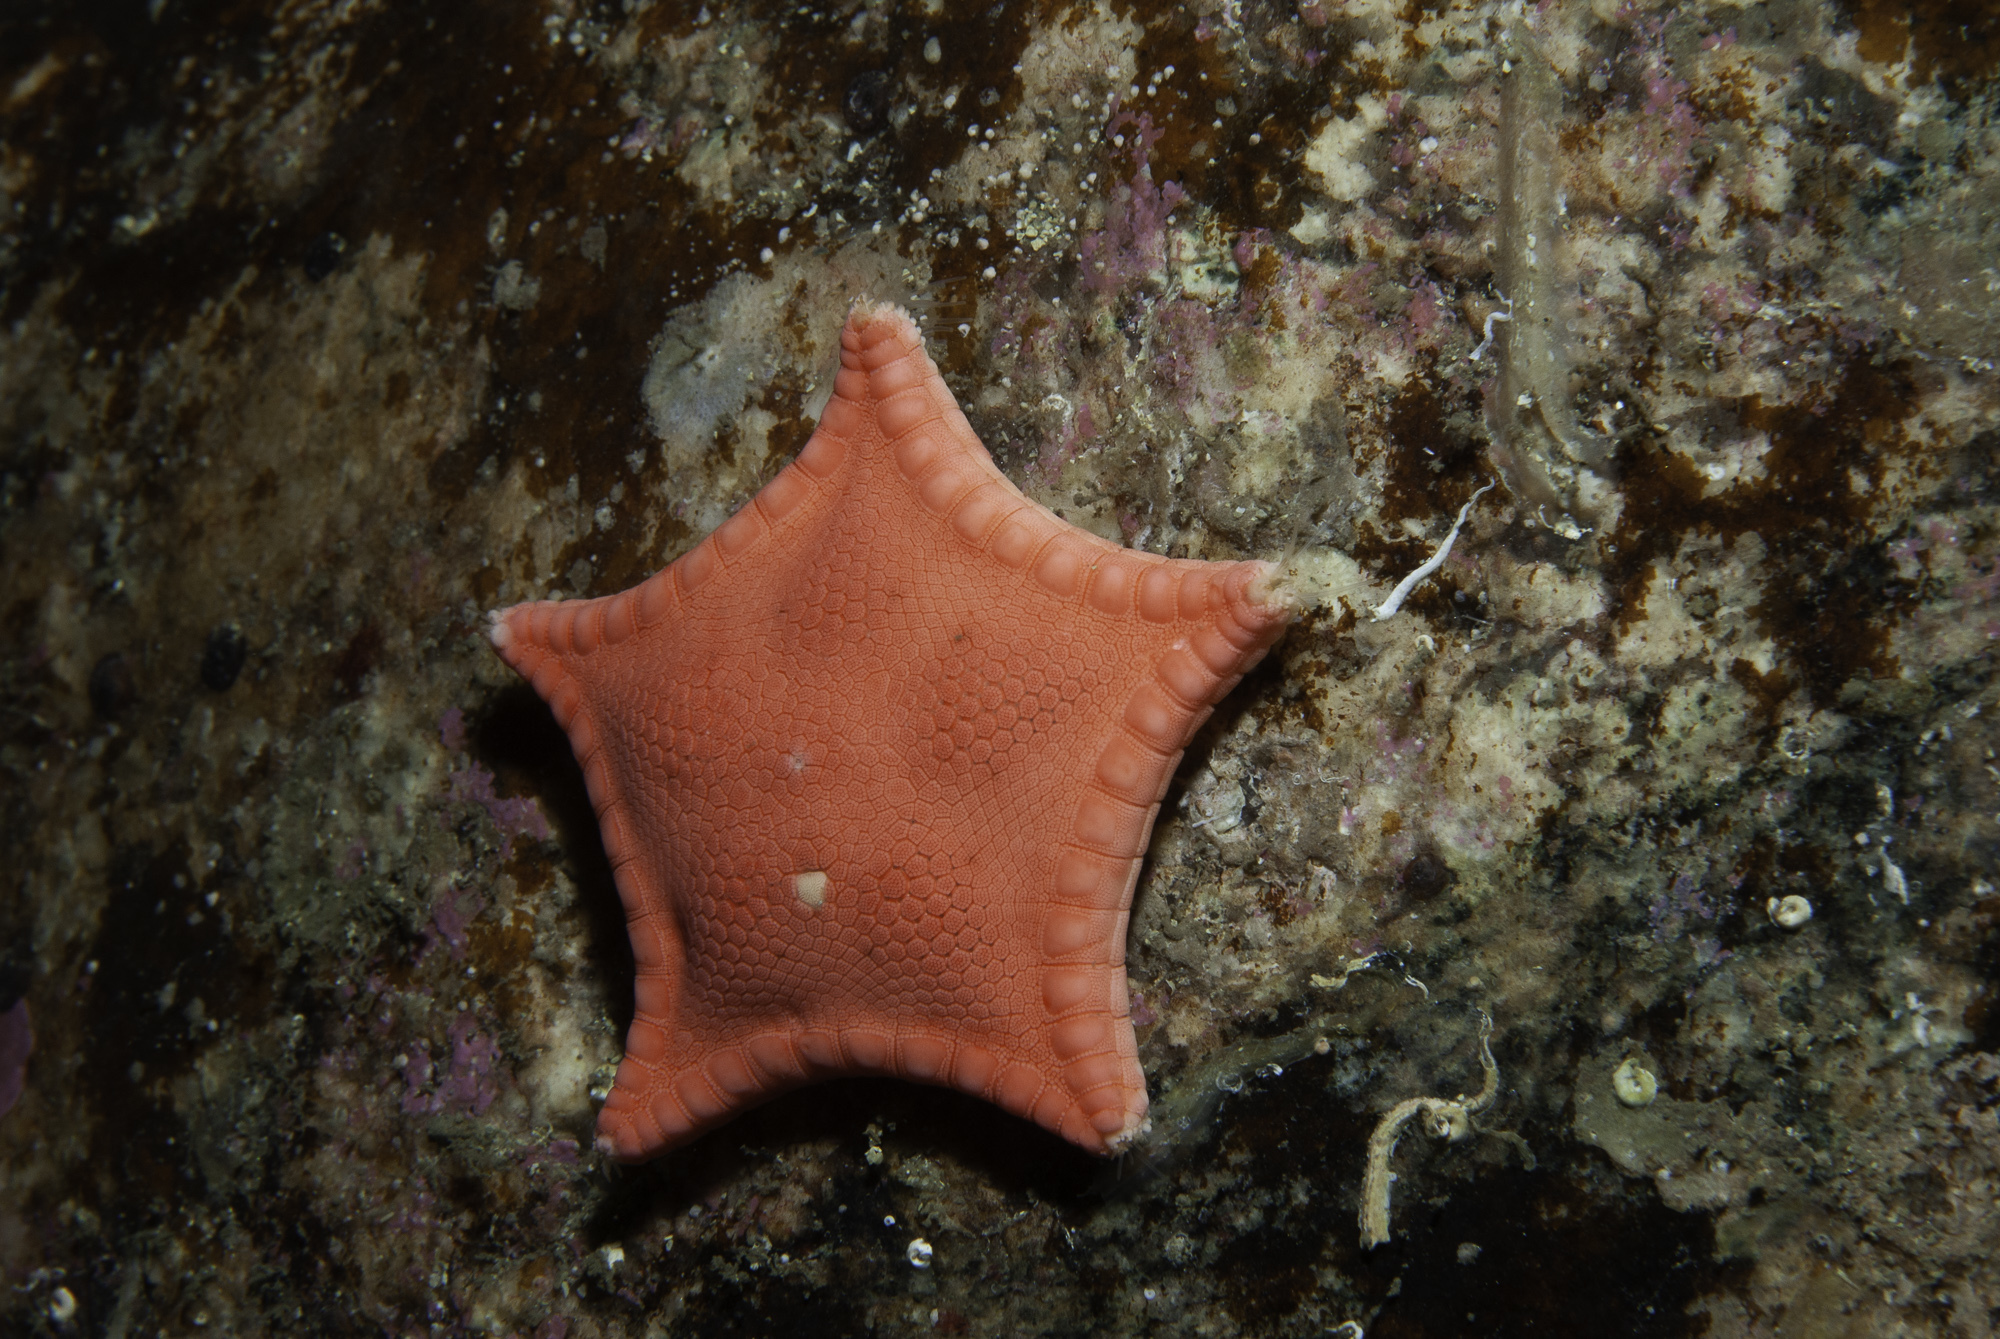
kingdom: Animalia
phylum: Echinodermata
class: Asteroidea
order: Valvatida
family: Goniasteridae
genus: Ceramaster
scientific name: Ceramaster granularis
